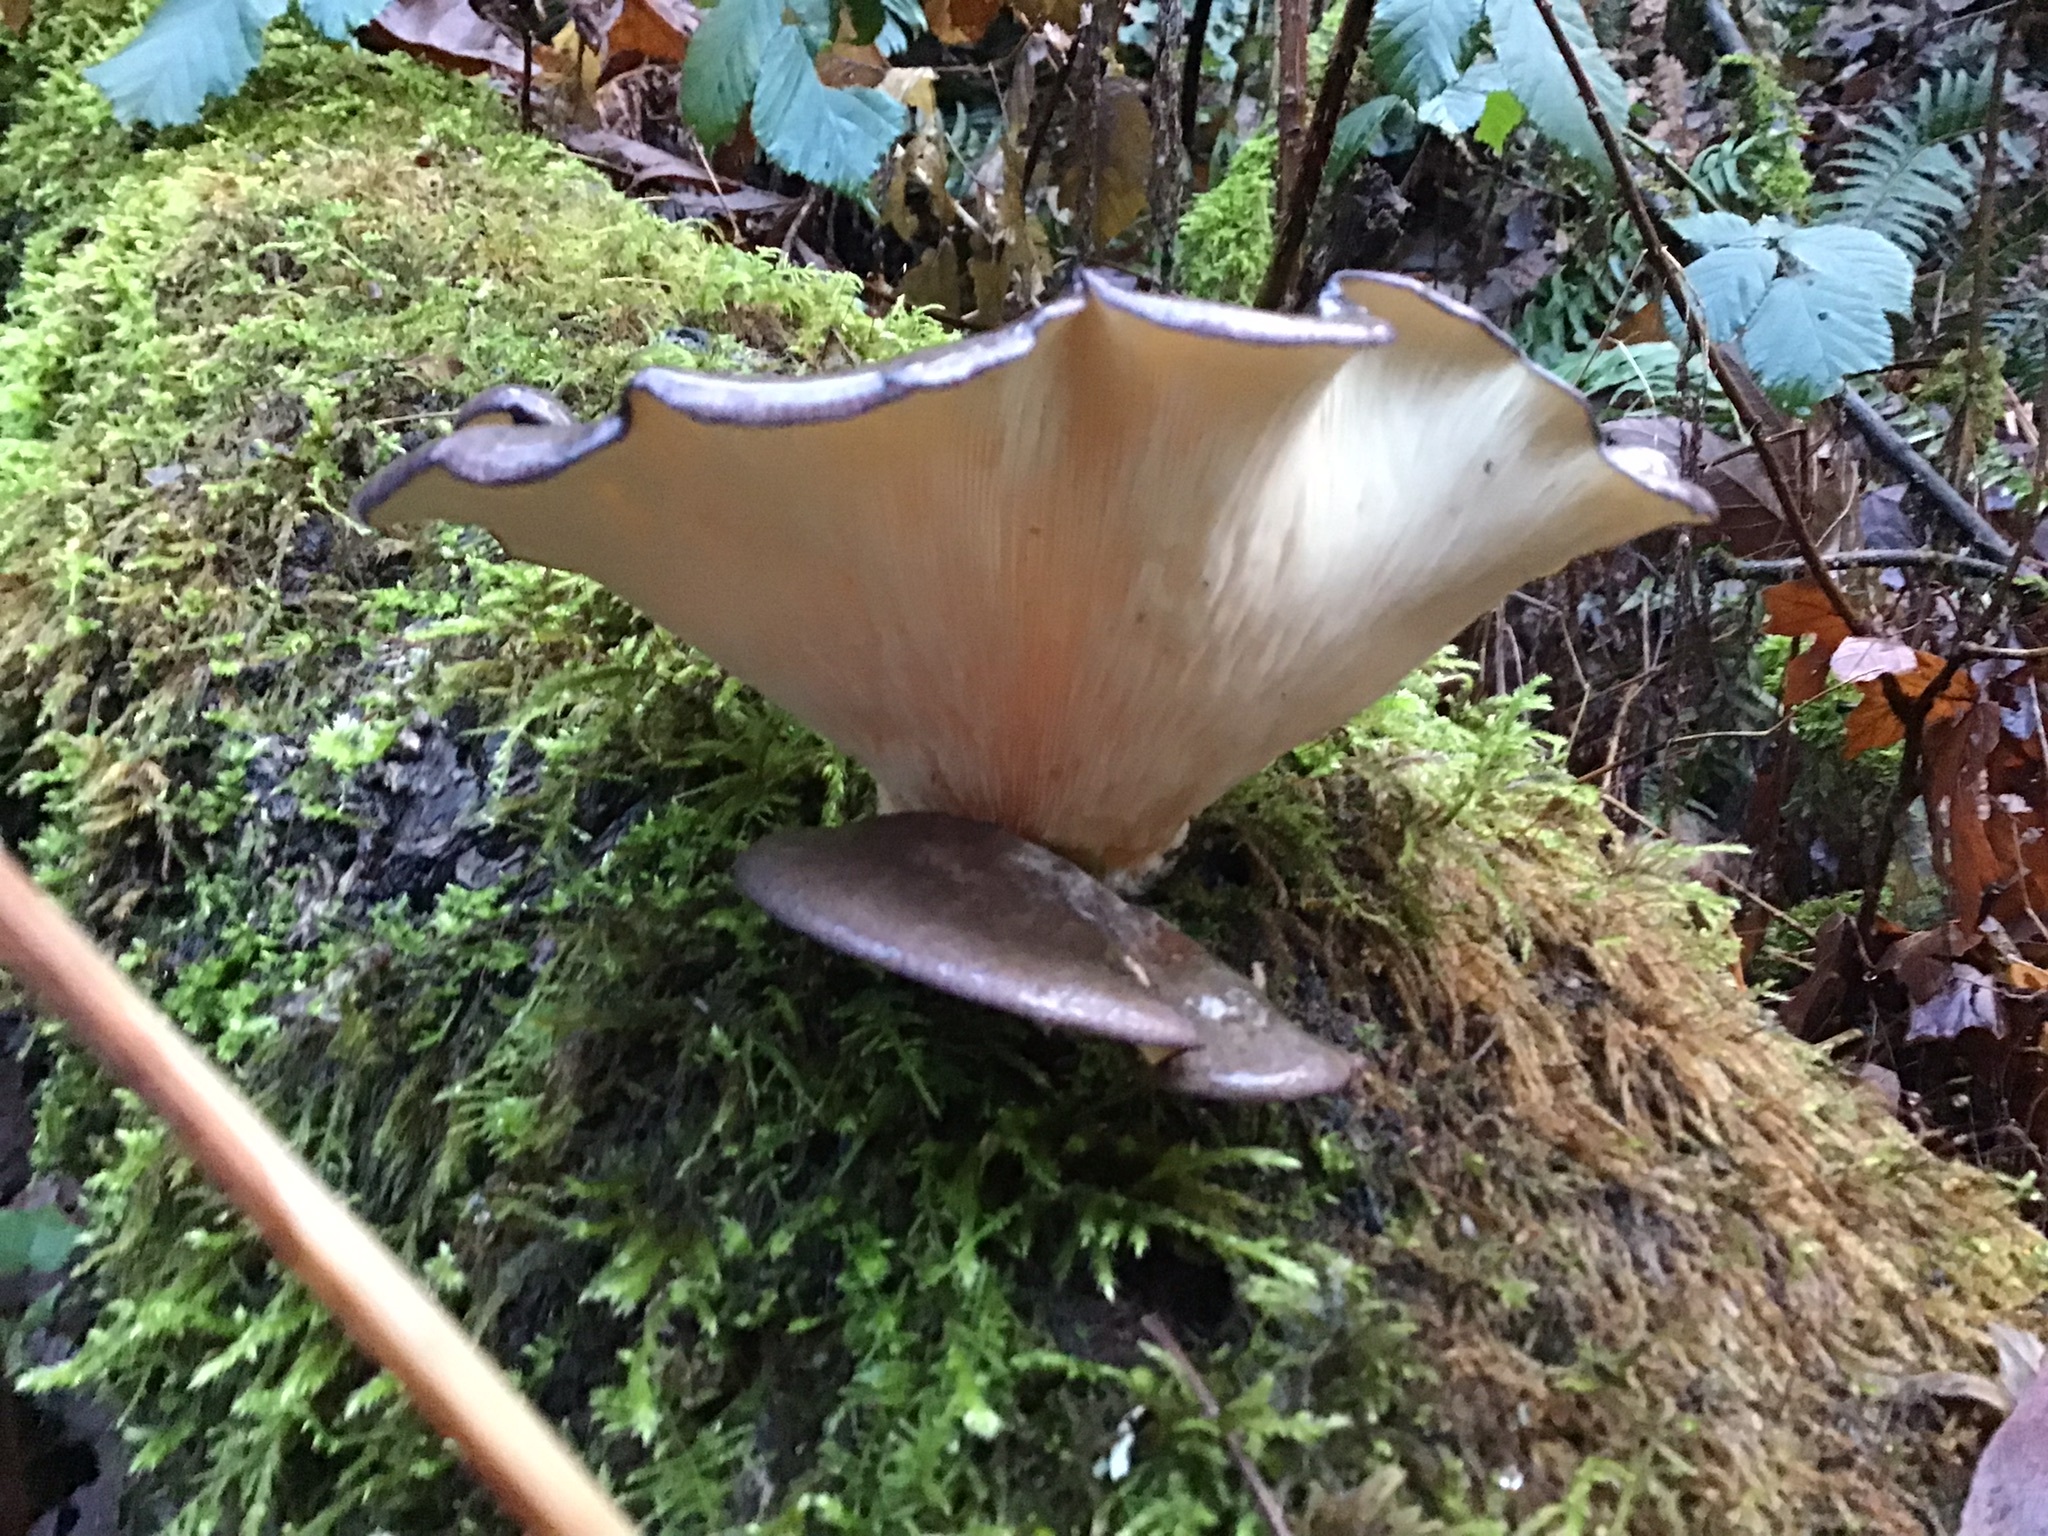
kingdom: Fungi
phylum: Basidiomycota
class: Agaricomycetes
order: Agaricales
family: Sarcomyxaceae
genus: Sarcomyxa
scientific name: Sarcomyxa serotina
